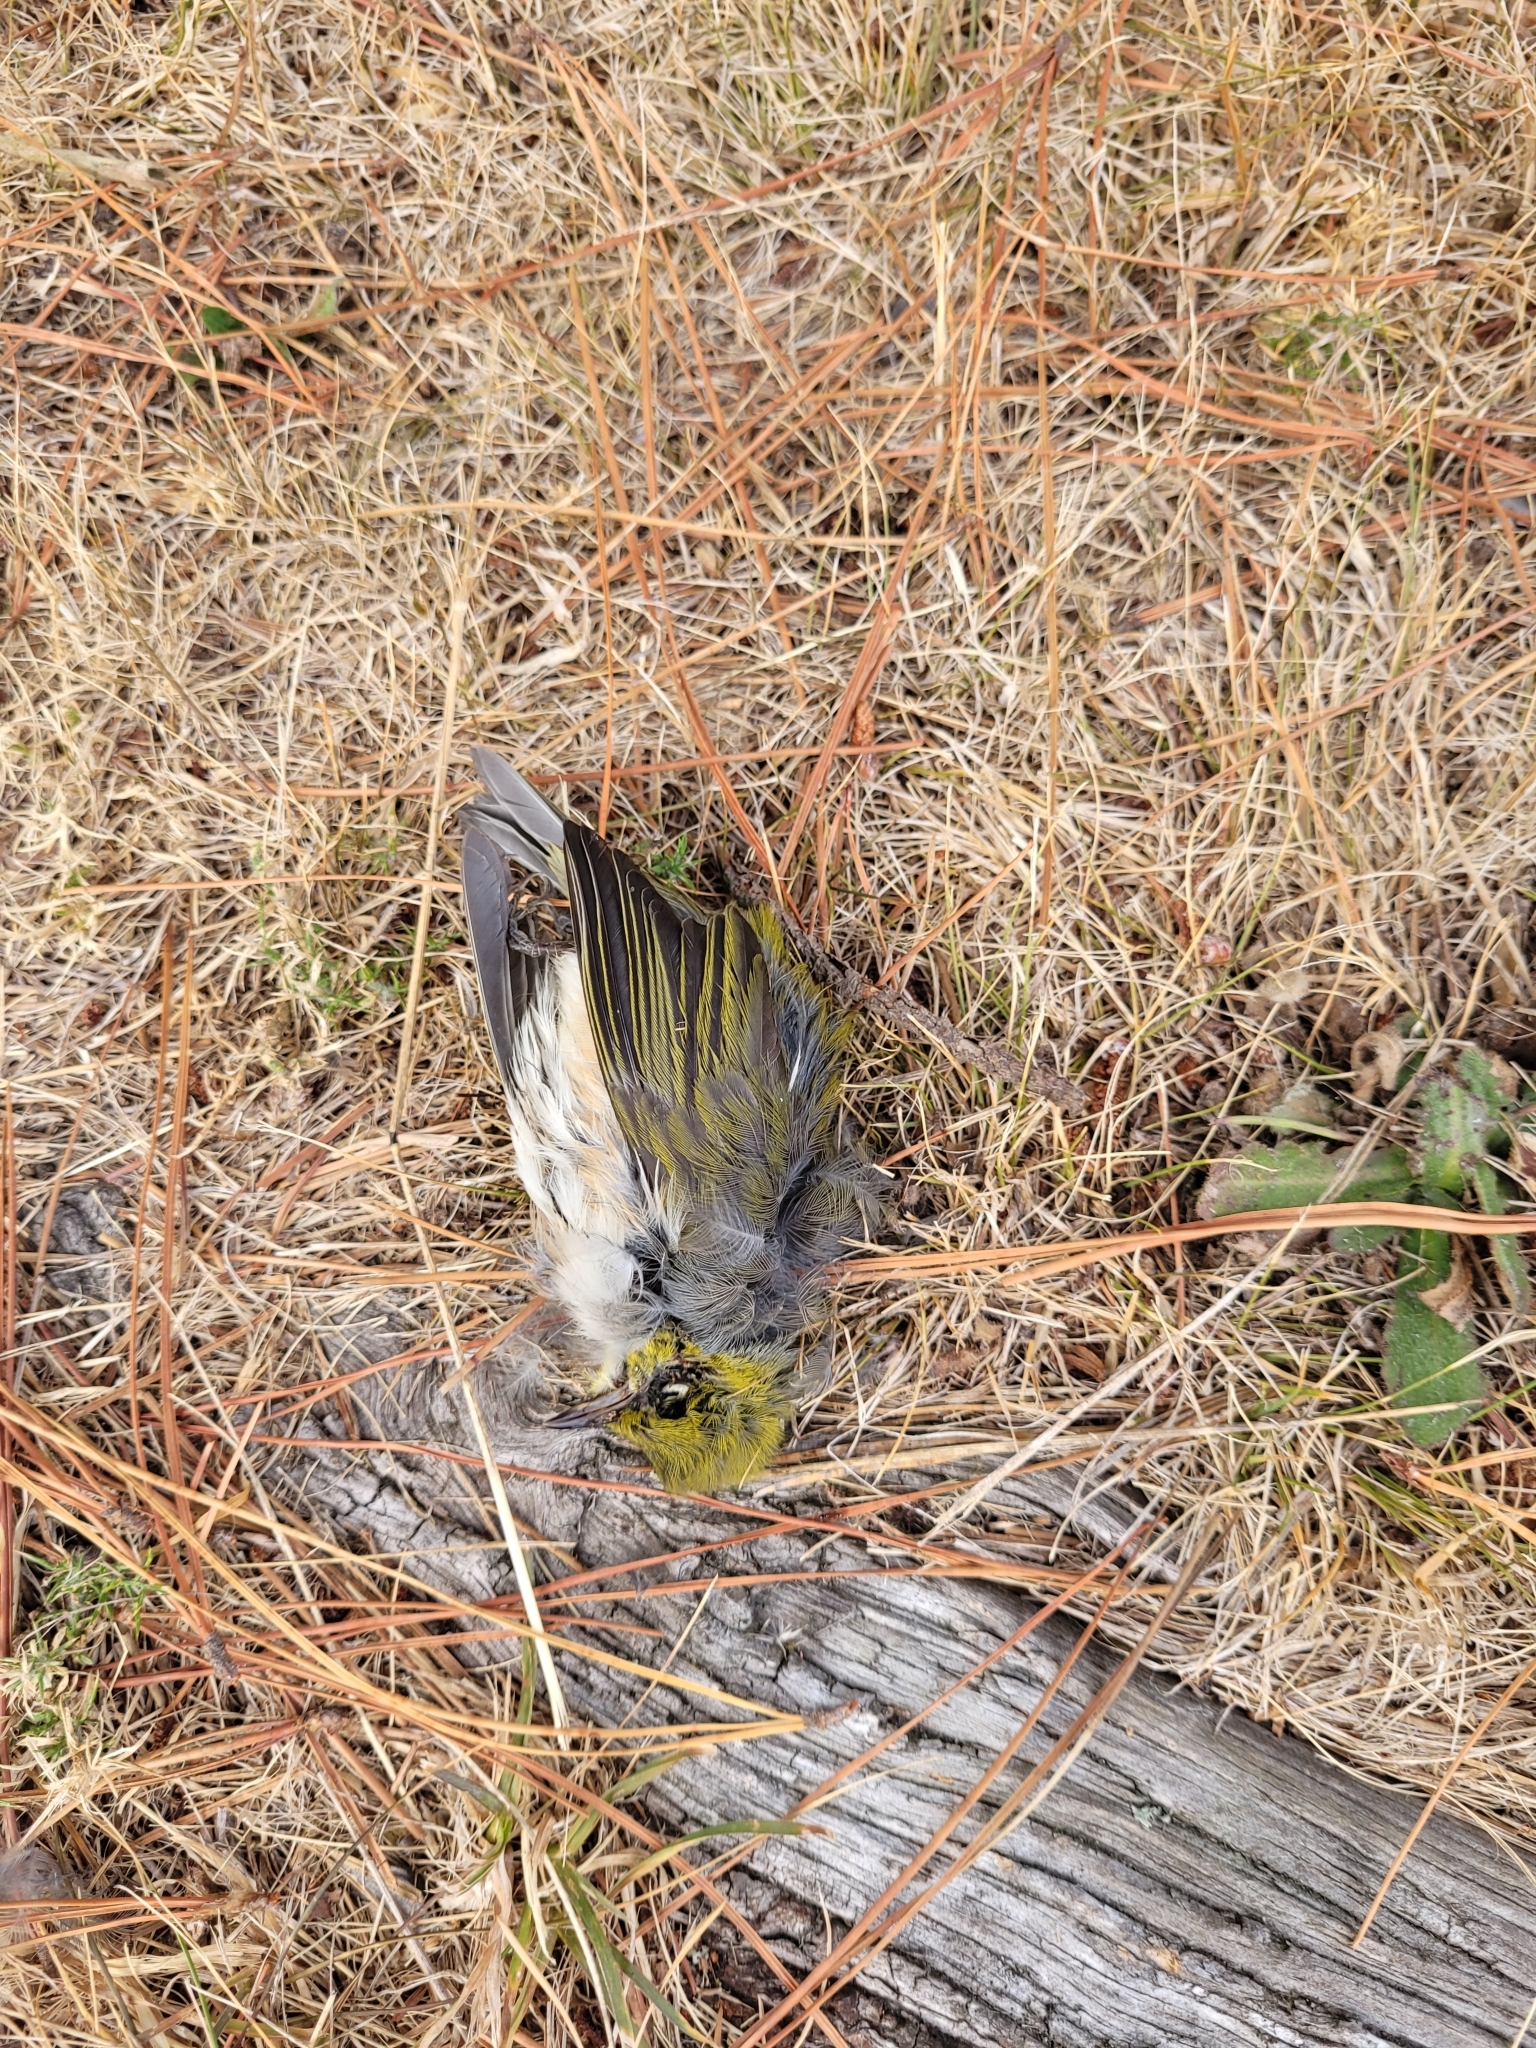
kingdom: Animalia
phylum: Chordata
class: Aves
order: Passeriformes
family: Zosteropidae
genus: Zosterops
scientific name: Zosterops lateralis
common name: Silvereye
